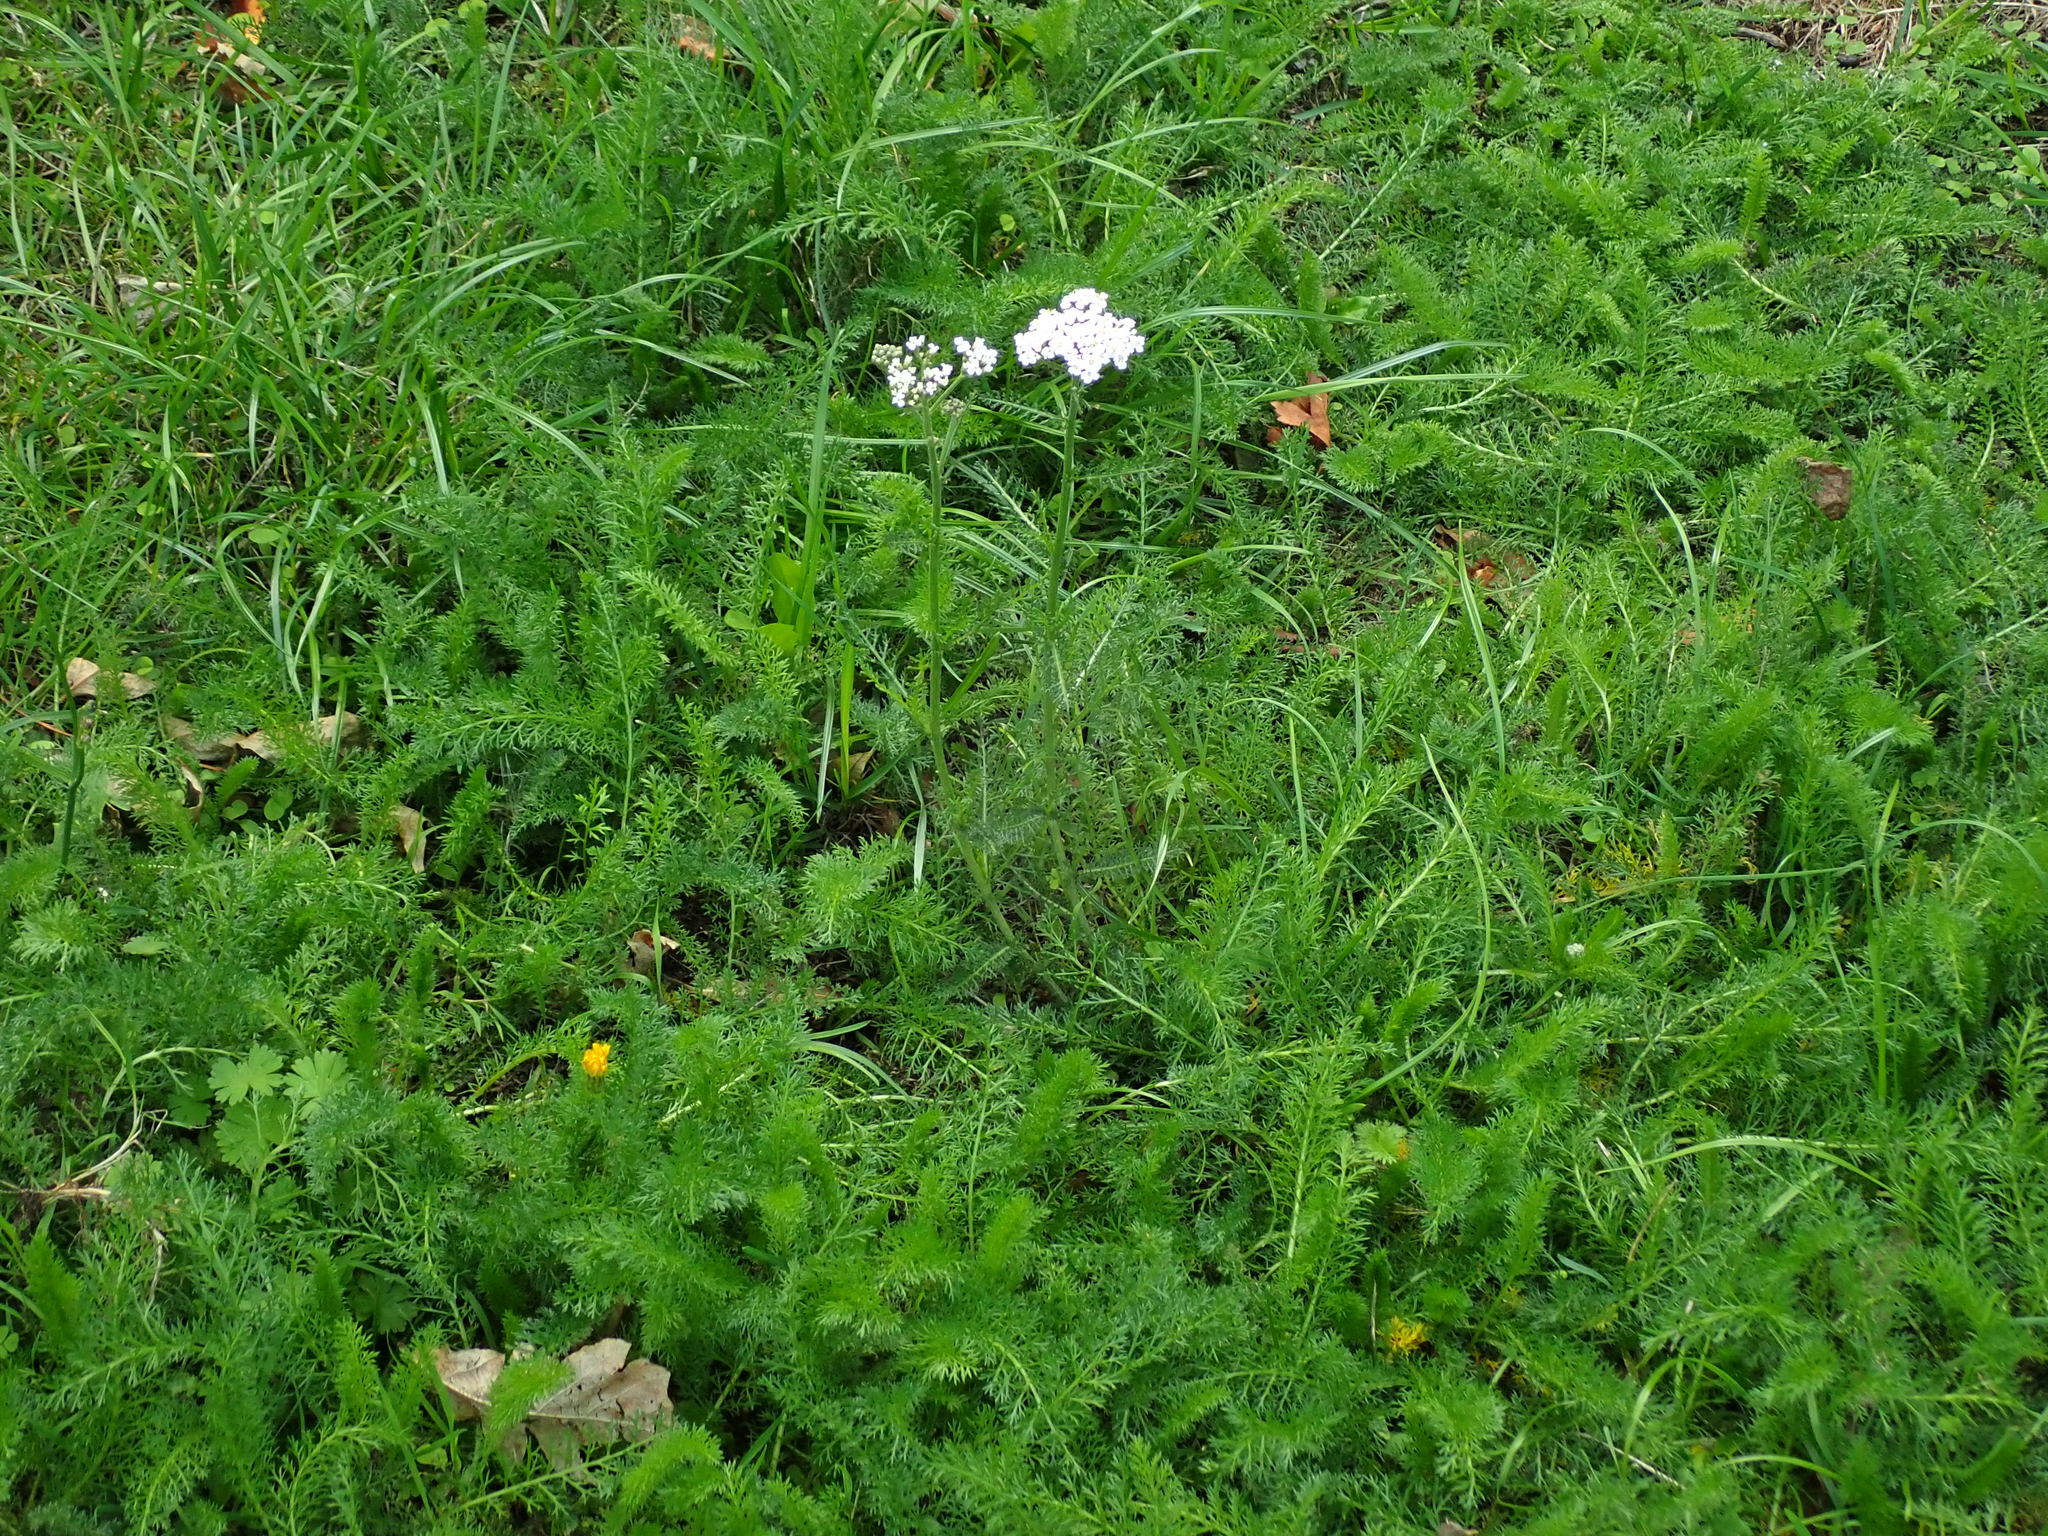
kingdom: Plantae
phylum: Tracheophyta
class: Magnoliopsida
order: Asterales
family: Asteraceae
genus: Achillea
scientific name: Achillea millefolium
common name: Yarrow
